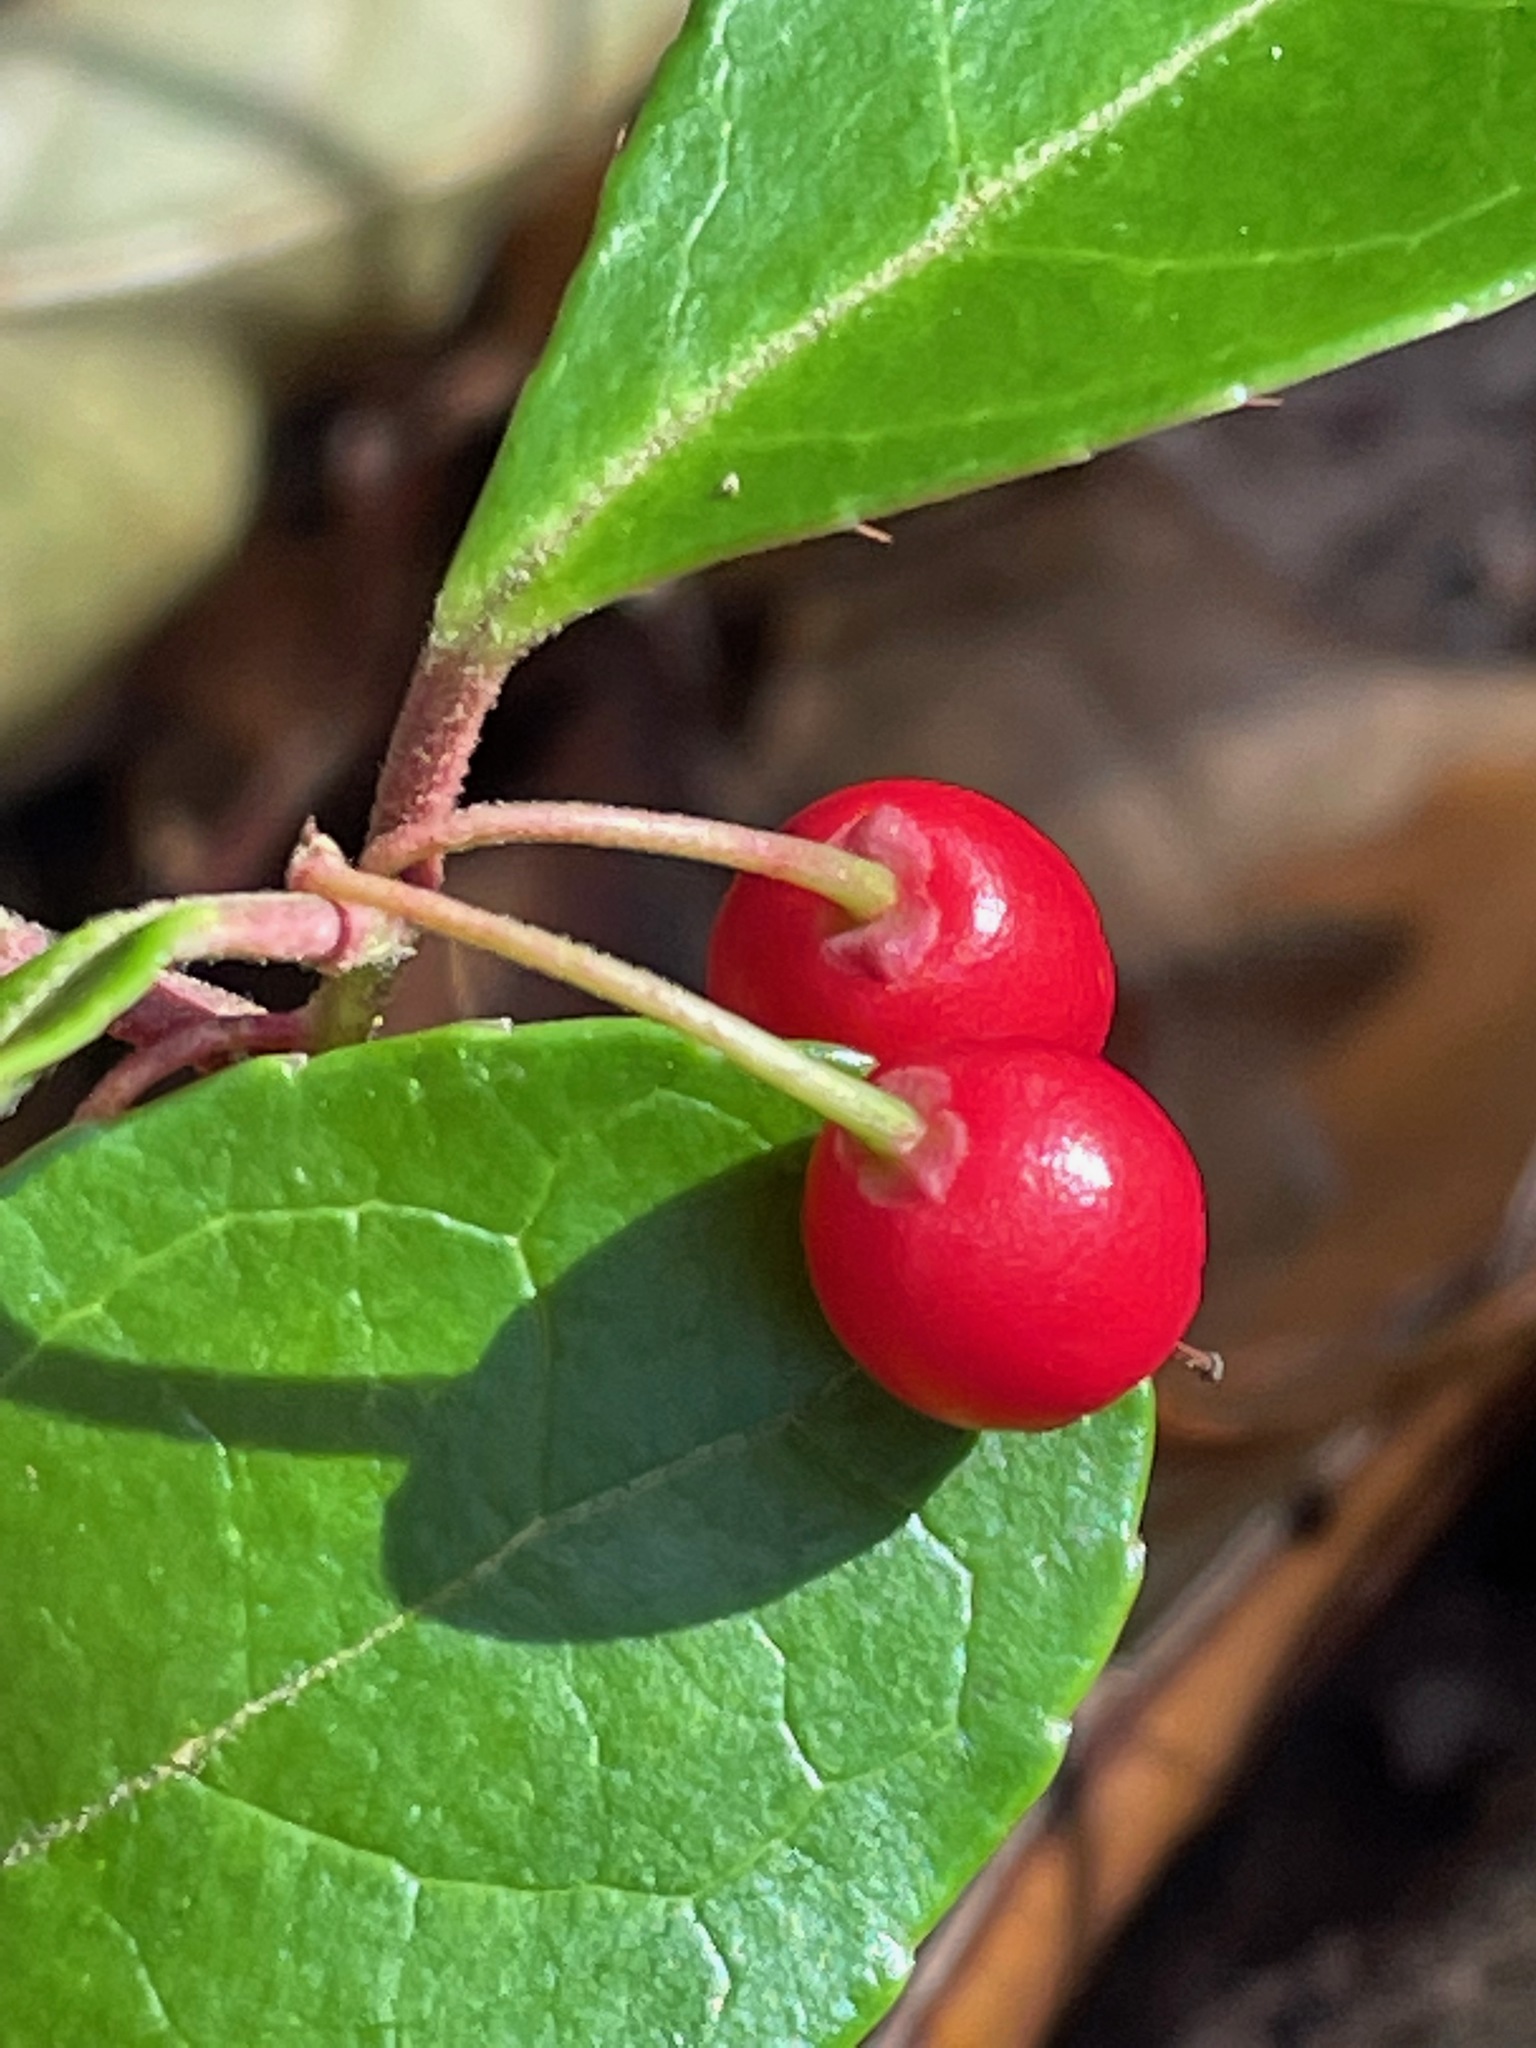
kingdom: Plantae
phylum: Tracheophyta
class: Magnoliopsida
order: Ericales
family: Ericaceae
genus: Gaultheria
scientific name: Gaultheria procumbens
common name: Checkerberry
